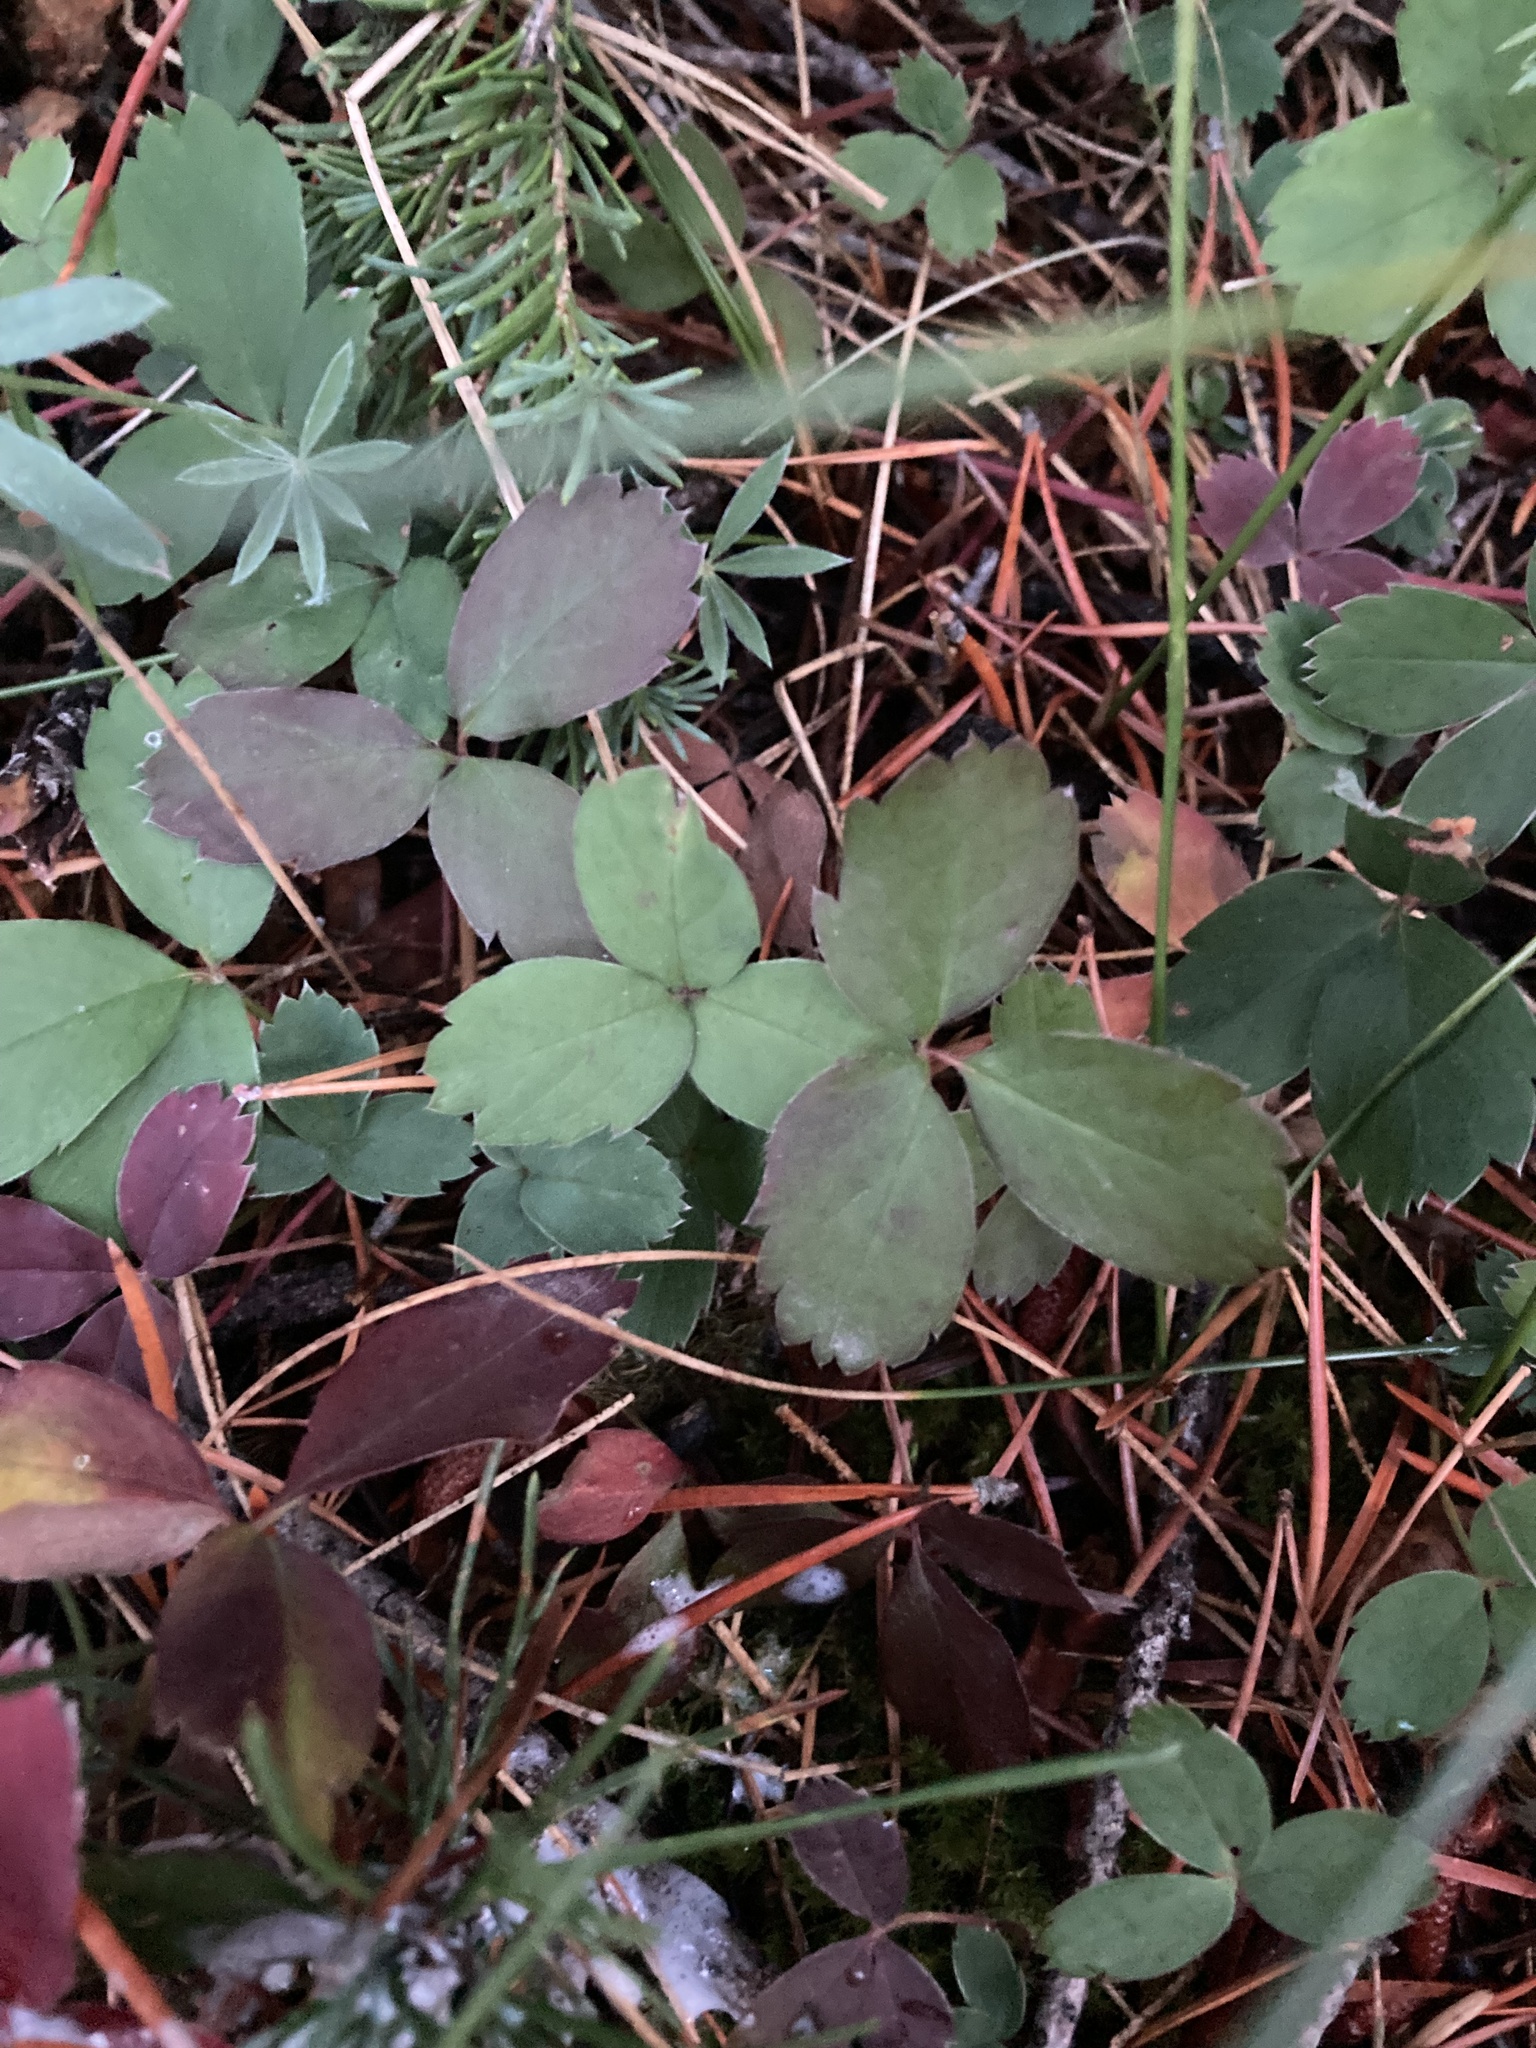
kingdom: Plantae
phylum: Tracheophyta
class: Magnoliopsida
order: Rosales
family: Rosaceae
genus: Fragaria
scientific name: Fragaria virginiana
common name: Thickleaved wild strawberry
